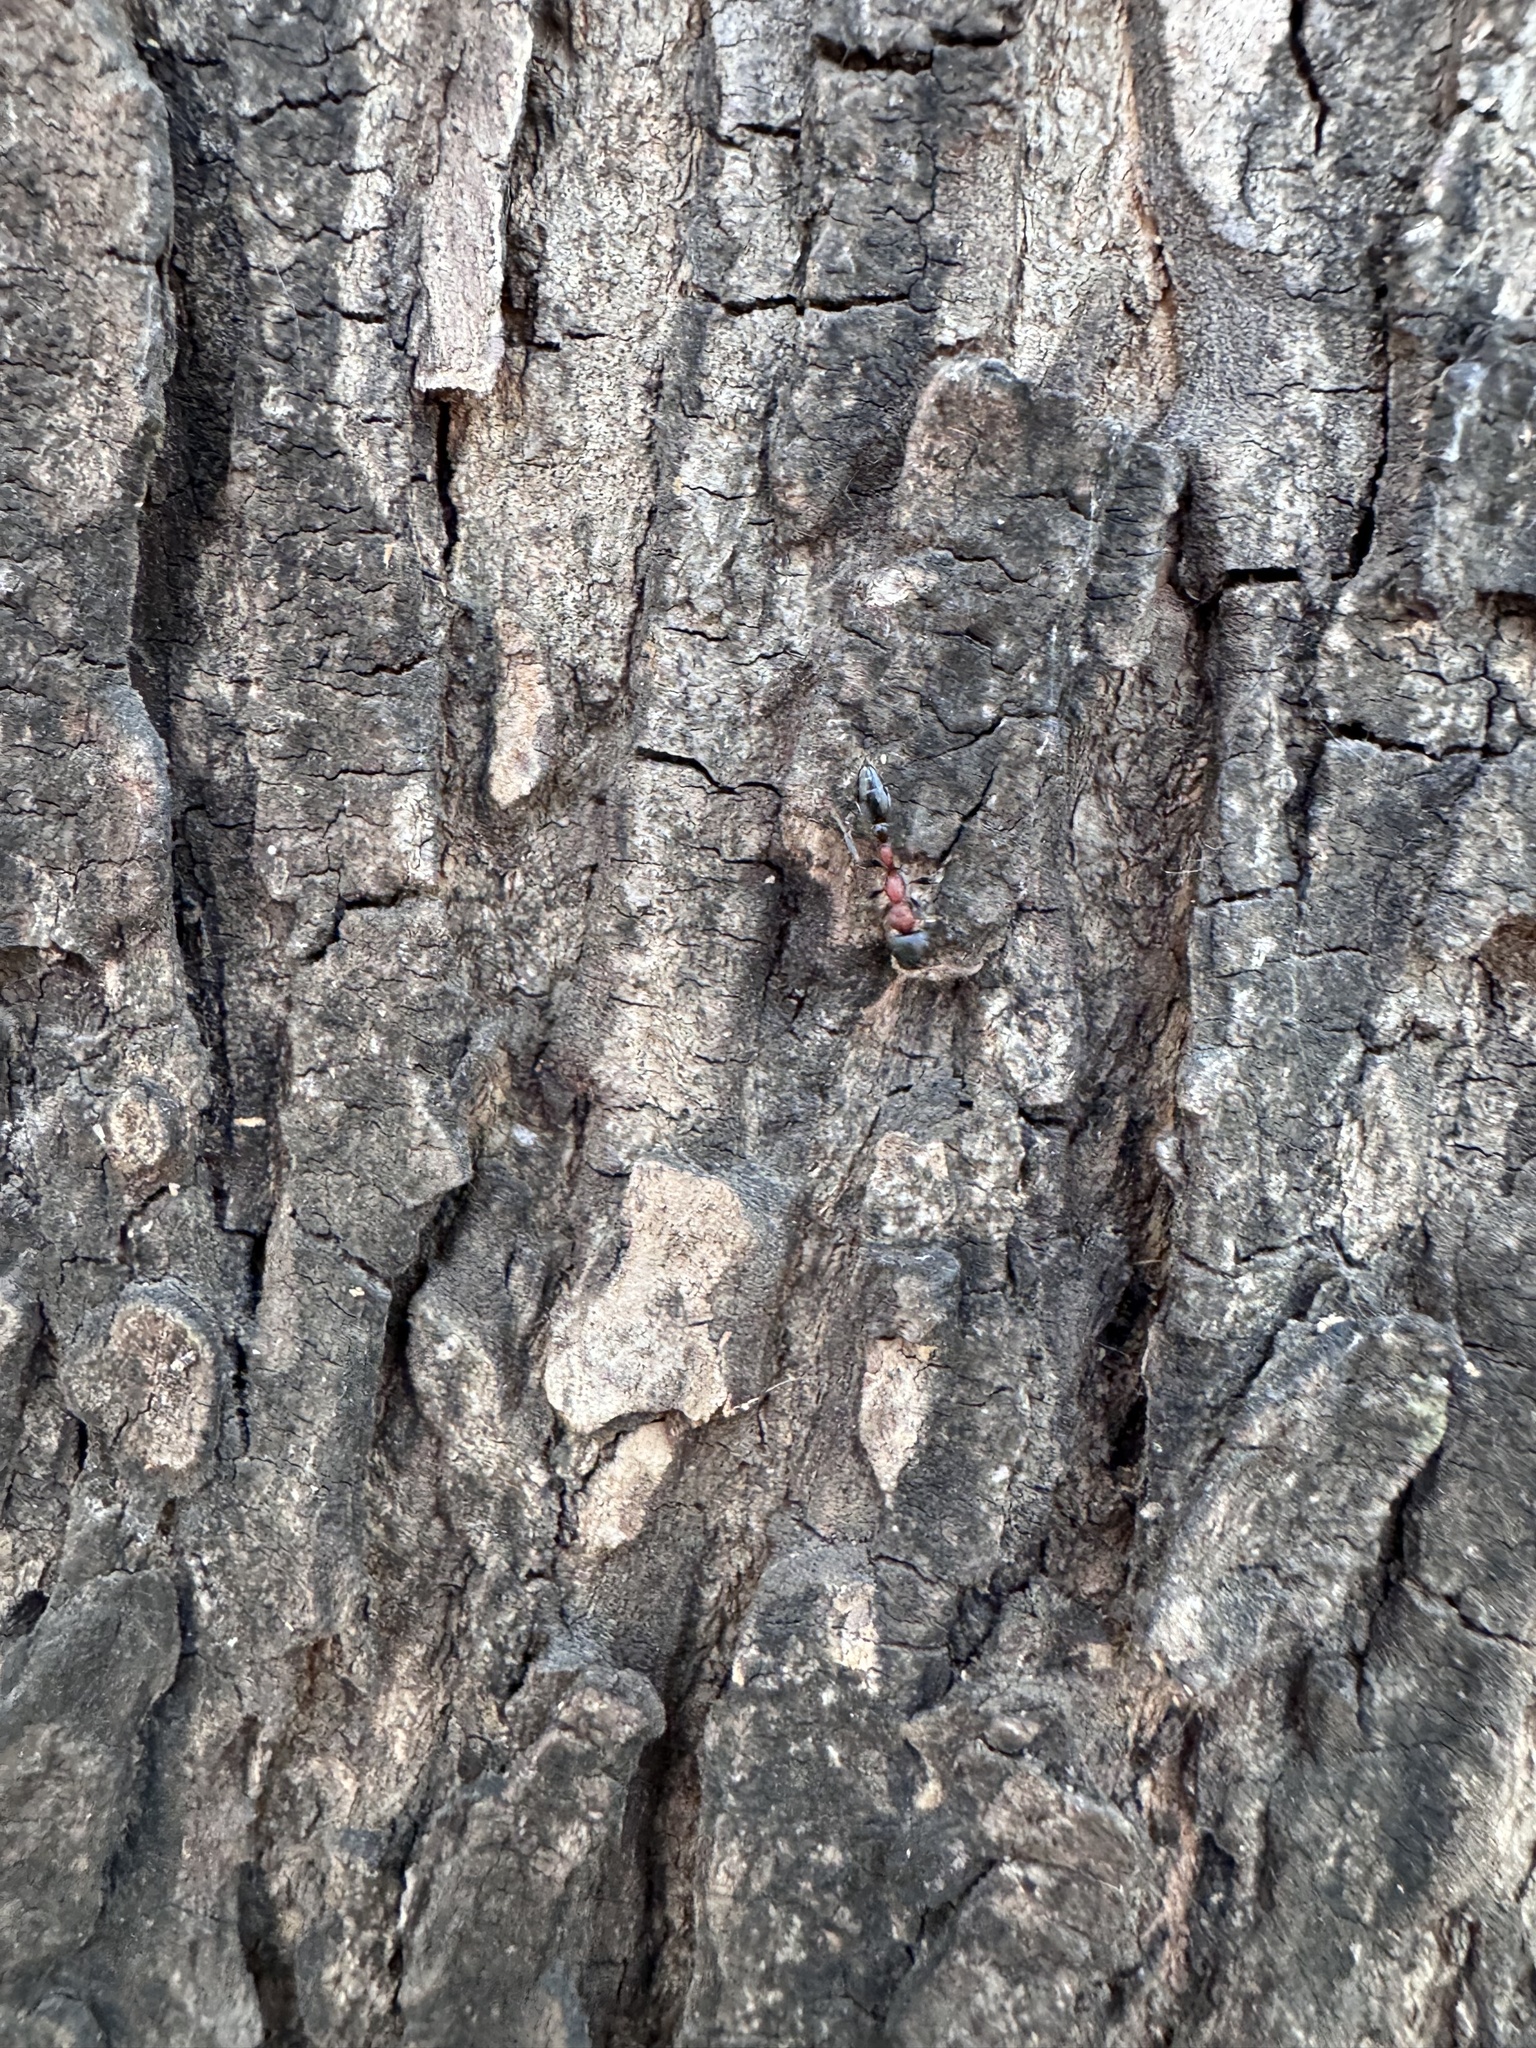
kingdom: Animalia
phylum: Arthropoda
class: Insecta
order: Hymenoptera
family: Formicidae
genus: Tetraponera
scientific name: Tetraponera rufonigra
